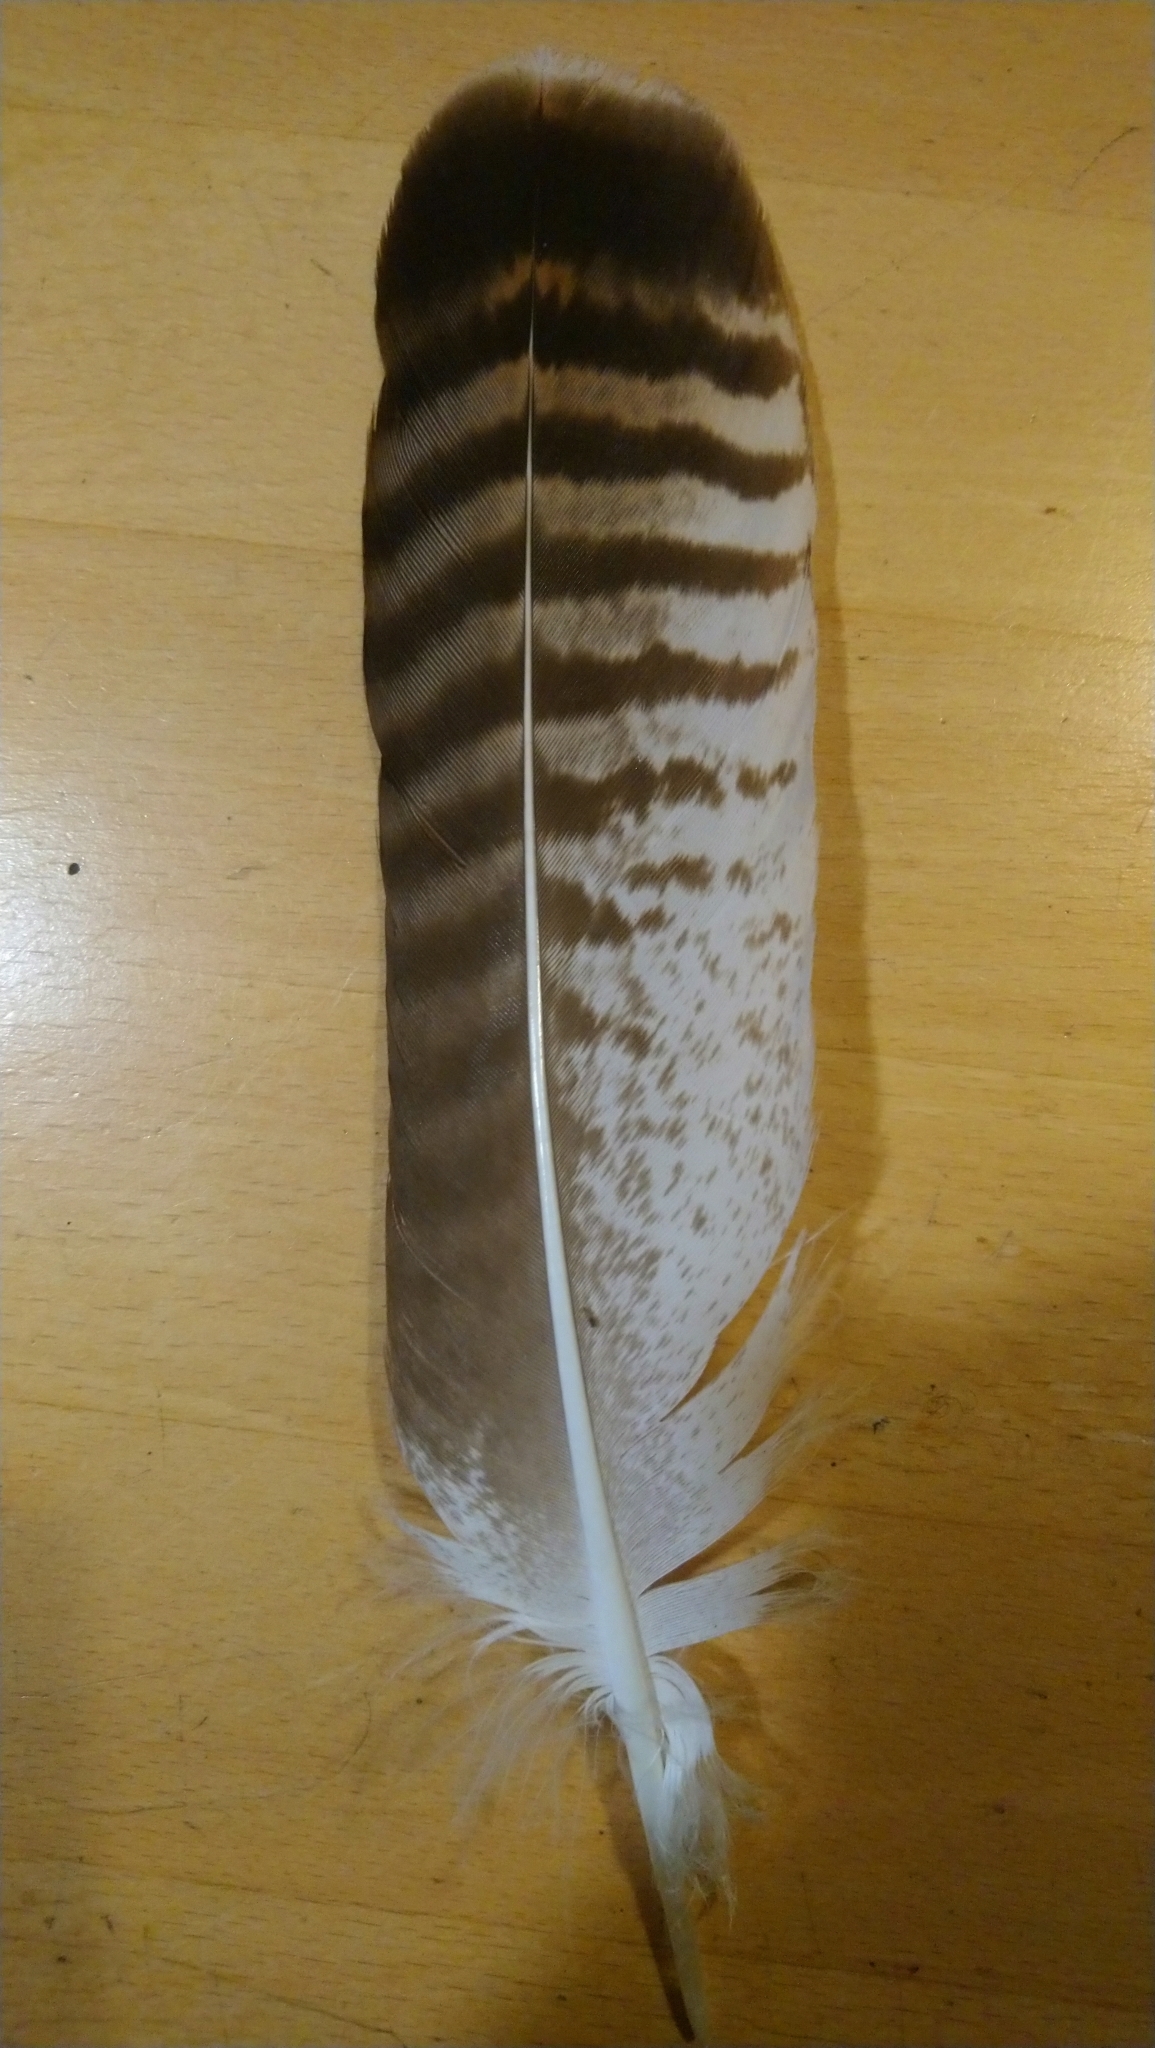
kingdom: Animalia
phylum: Chordata
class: Aves
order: Accipitriformes
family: Accipitridae
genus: Buteo
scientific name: Buteo buteo
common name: Common buzzard
